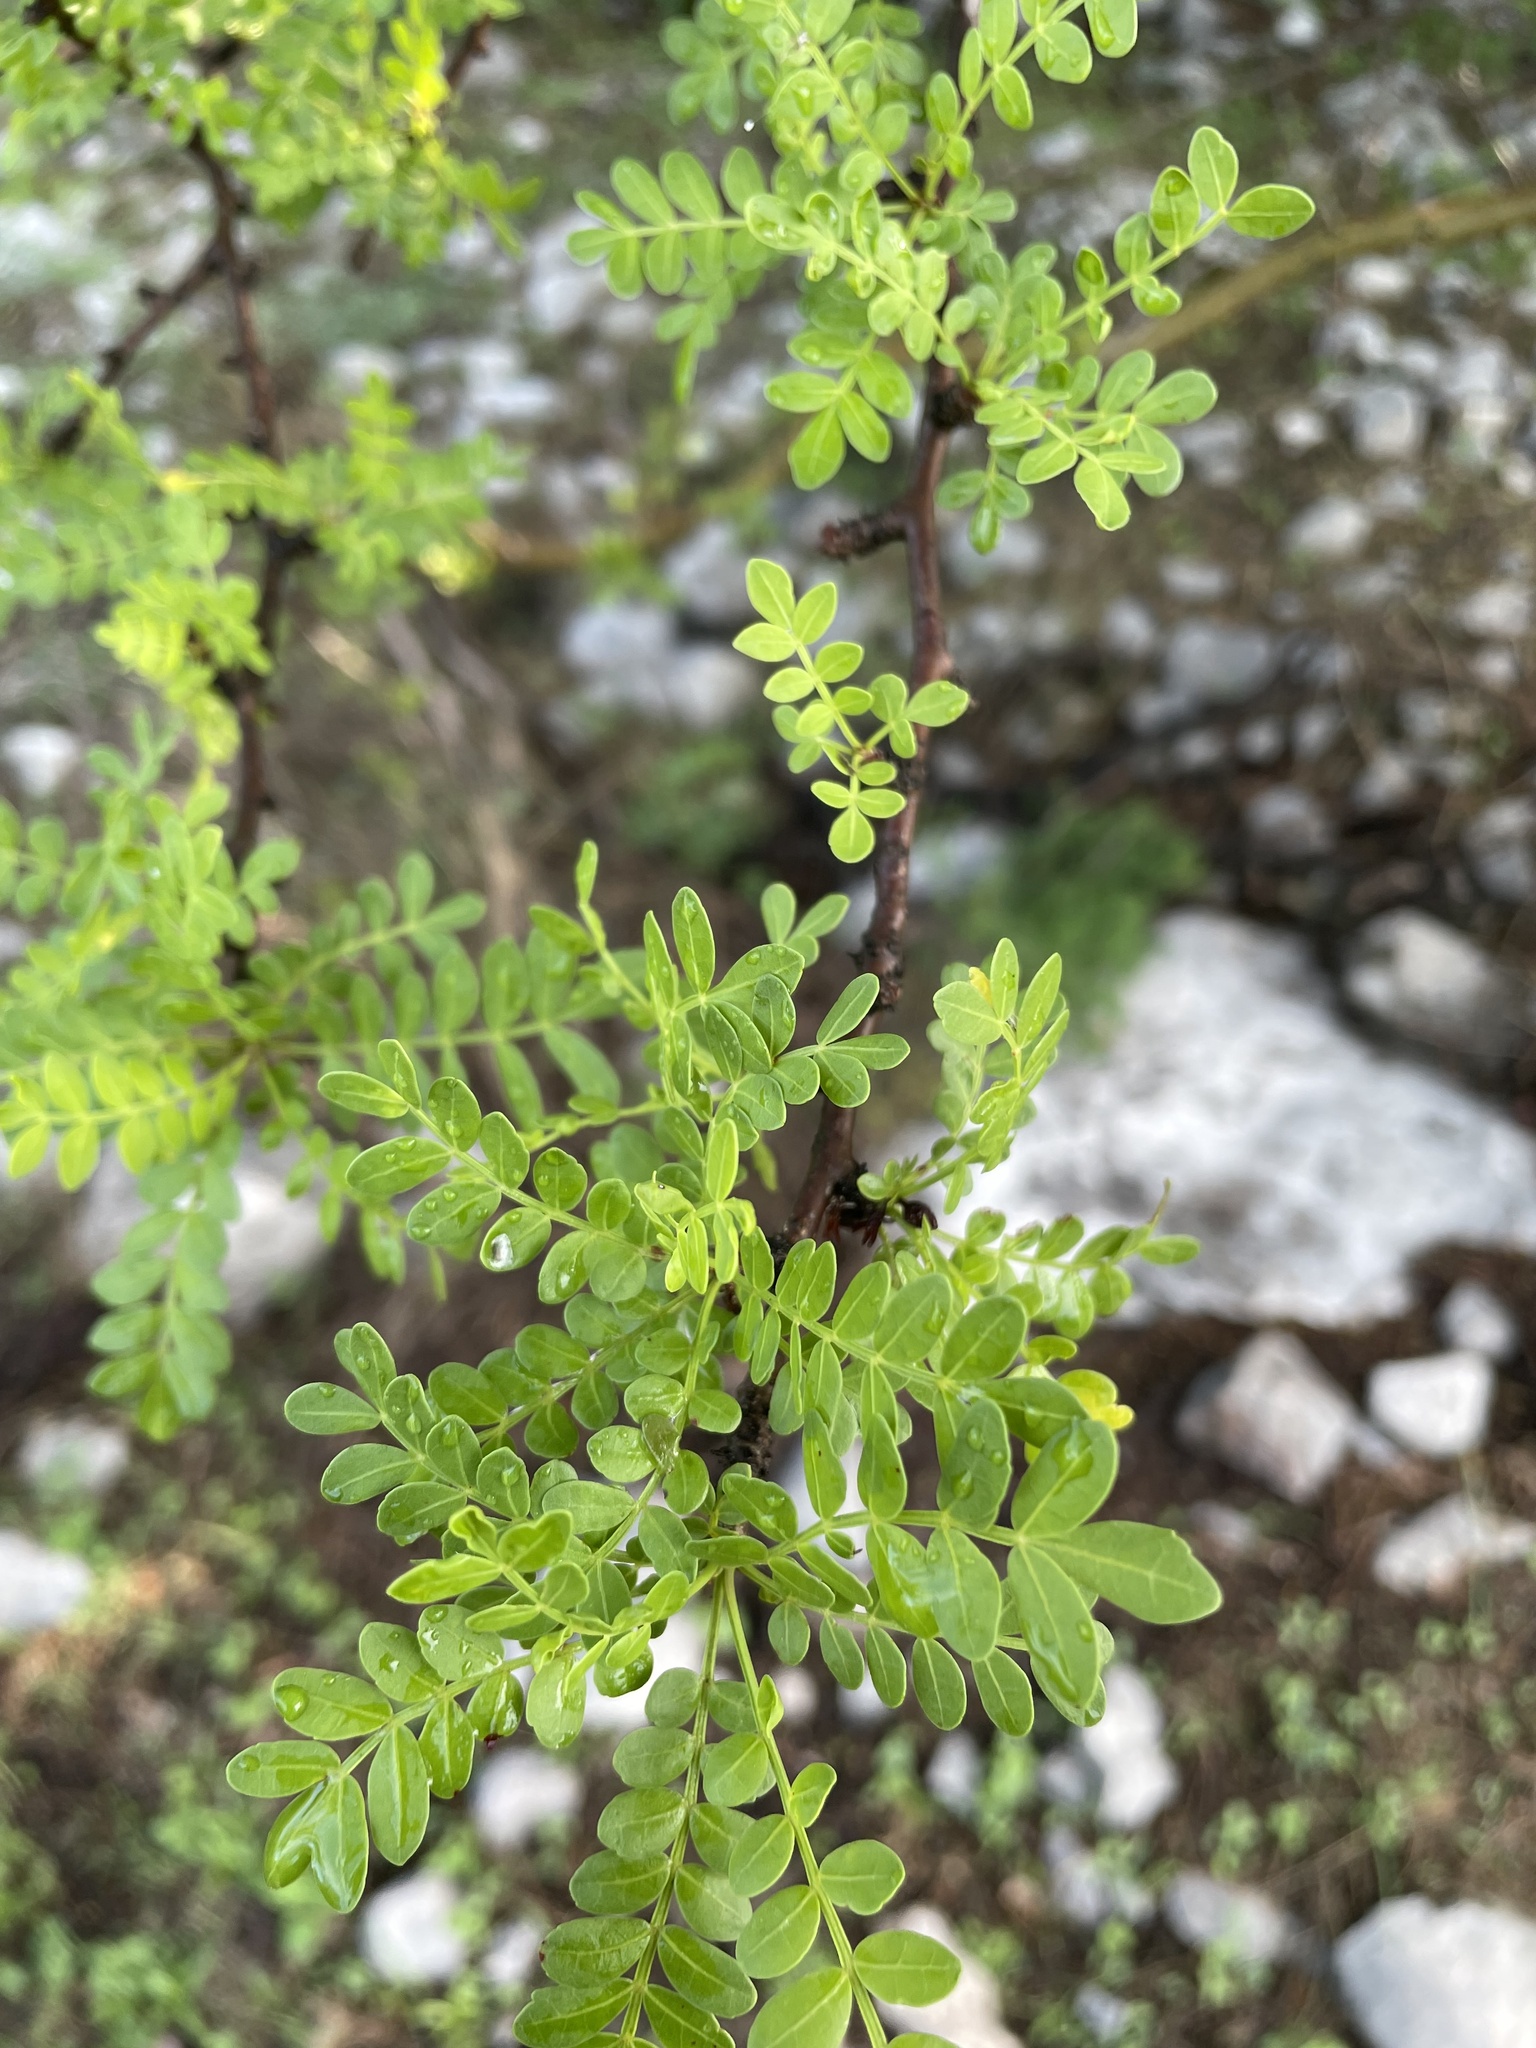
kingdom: Plantae
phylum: Tracheophyta
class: Magnoliopsida
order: Sapindales
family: Burseraceae
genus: Bursera
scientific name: Bursera aptera
